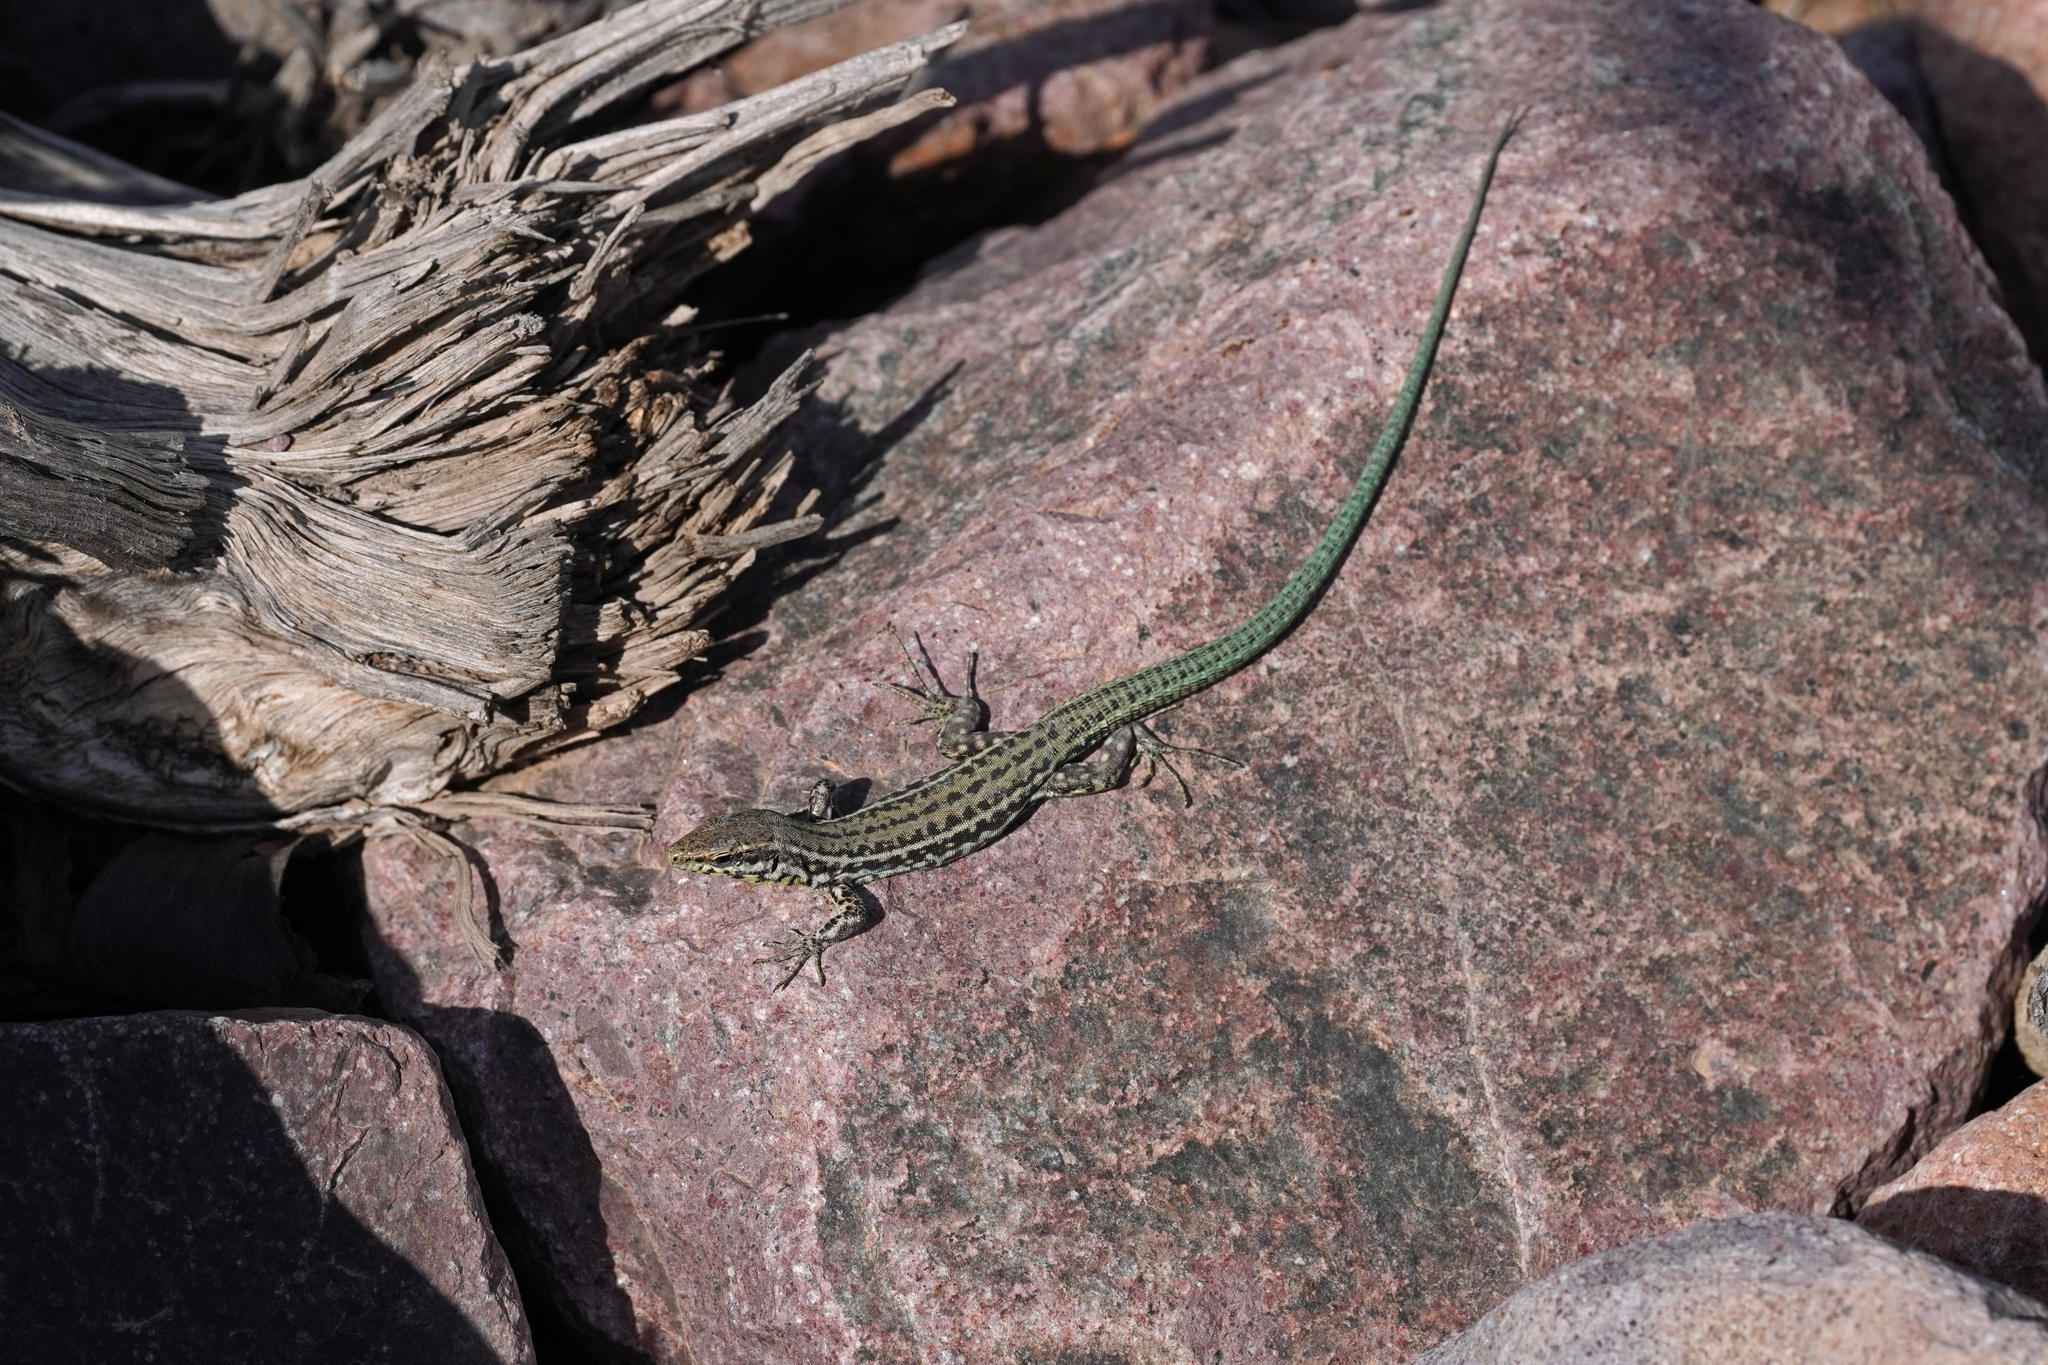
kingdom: Animalia
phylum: Chordata
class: Squamata
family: Lacertidae
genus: Podarcis
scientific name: Podarcis tiliguerta
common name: Tyrrhenian wall lizard
